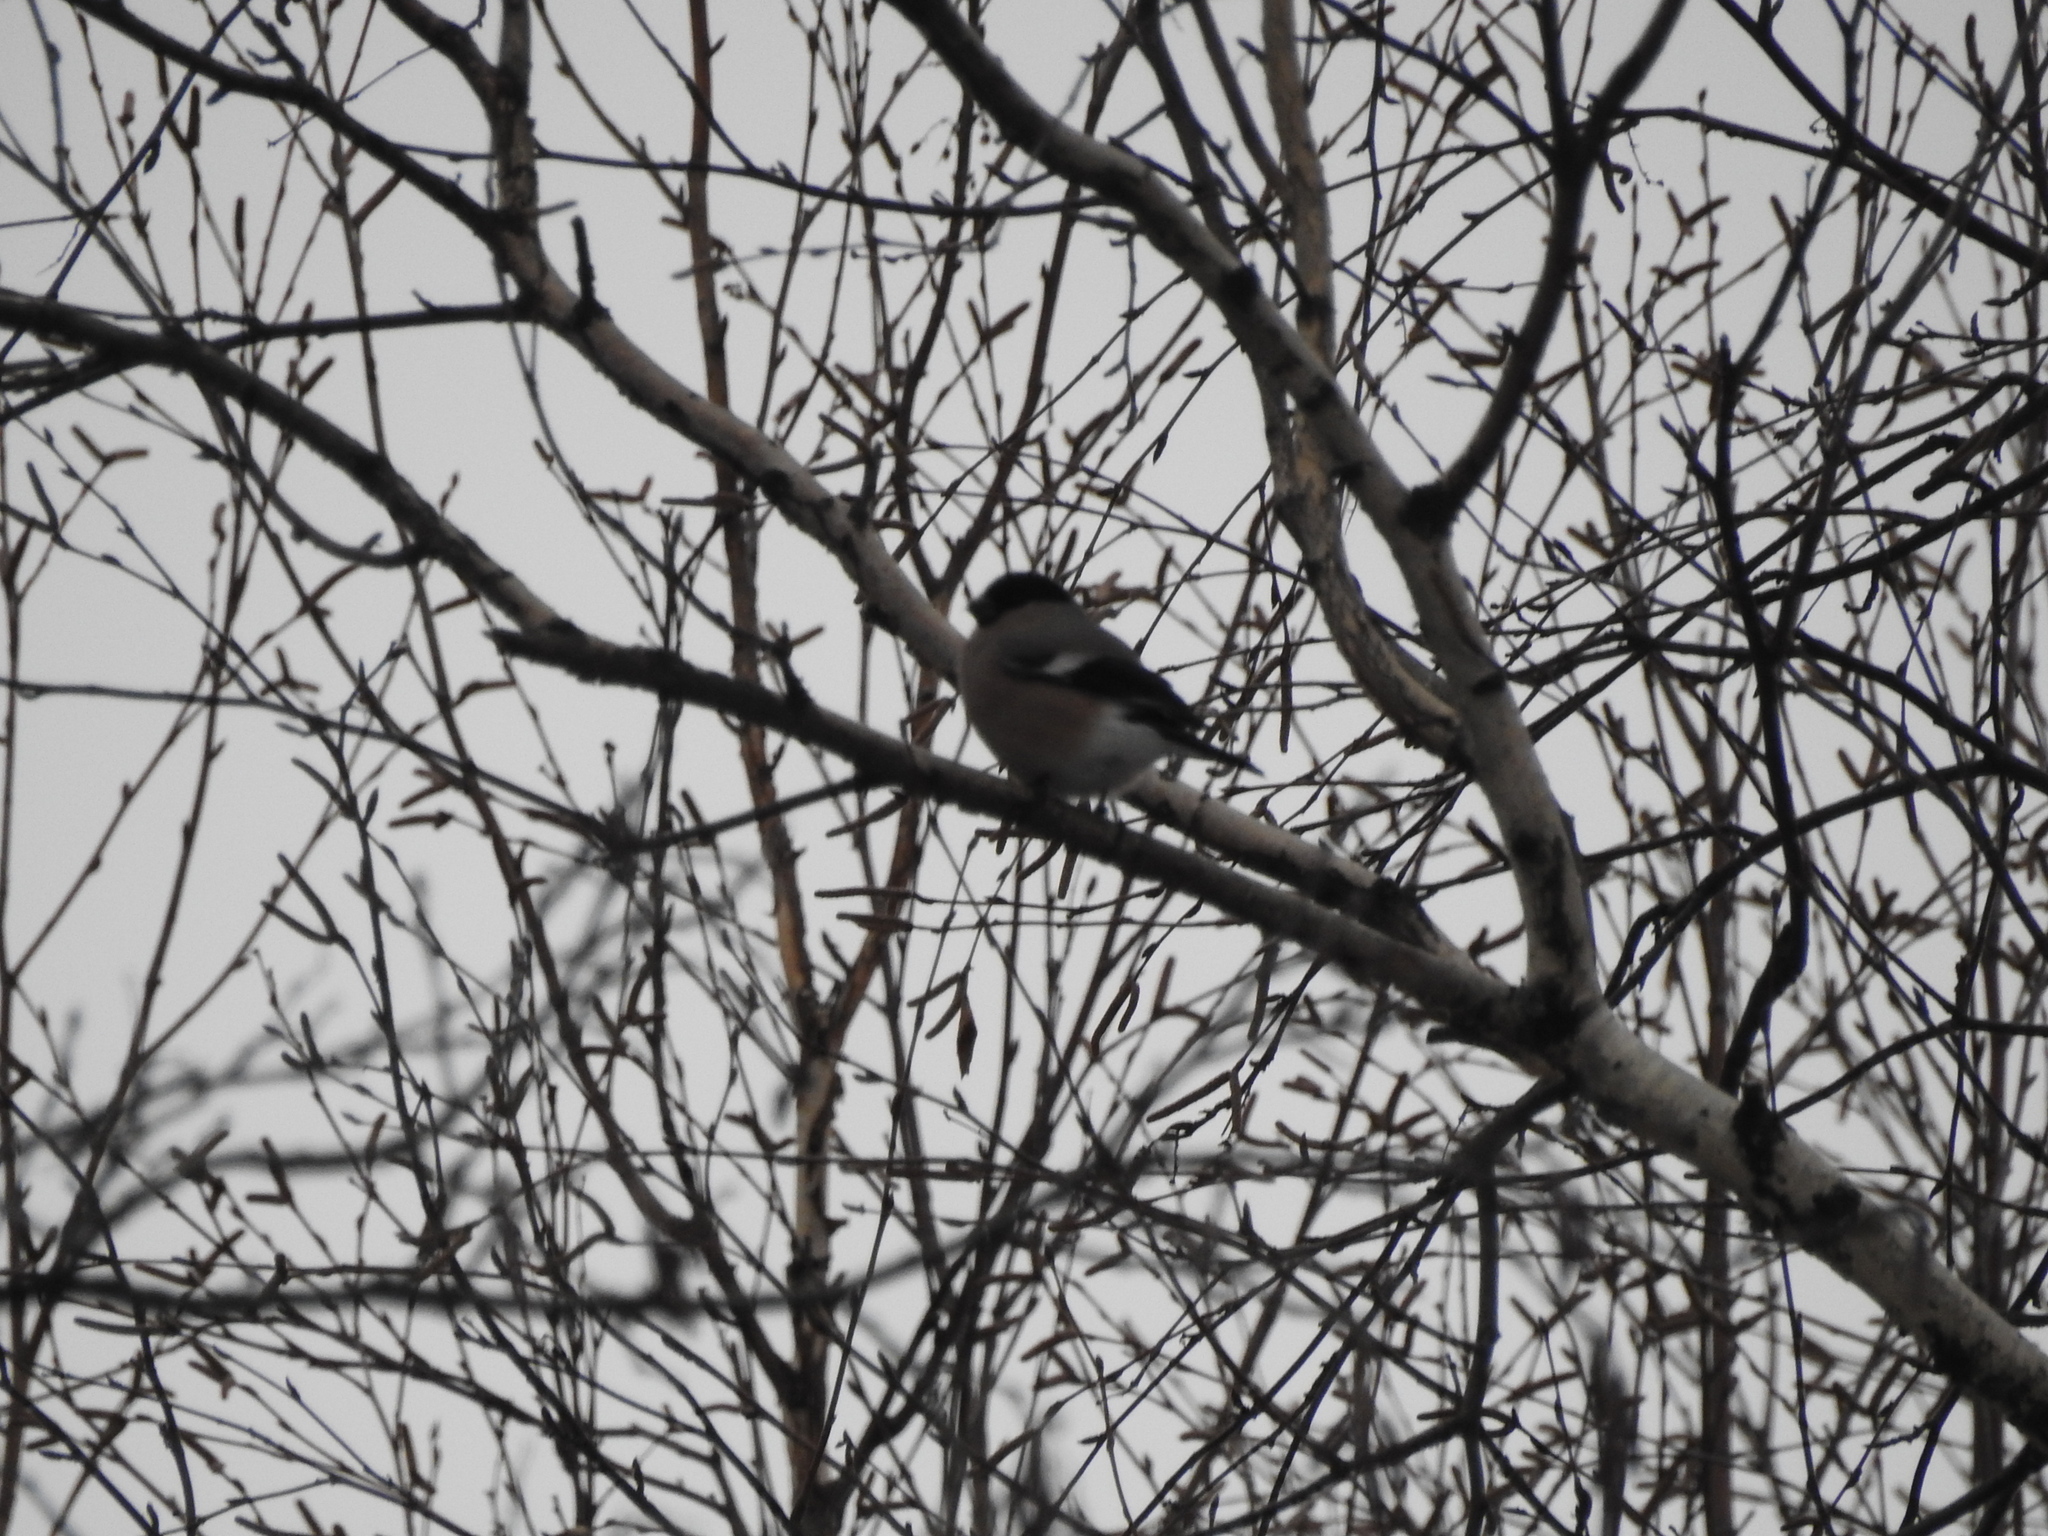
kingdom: Animalia
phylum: Chordata
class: Aves
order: Passeriformes
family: Fringillidae
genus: Pyrrhula
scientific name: Pyrrhula pyrrhula
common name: Eurasian bullfinch
